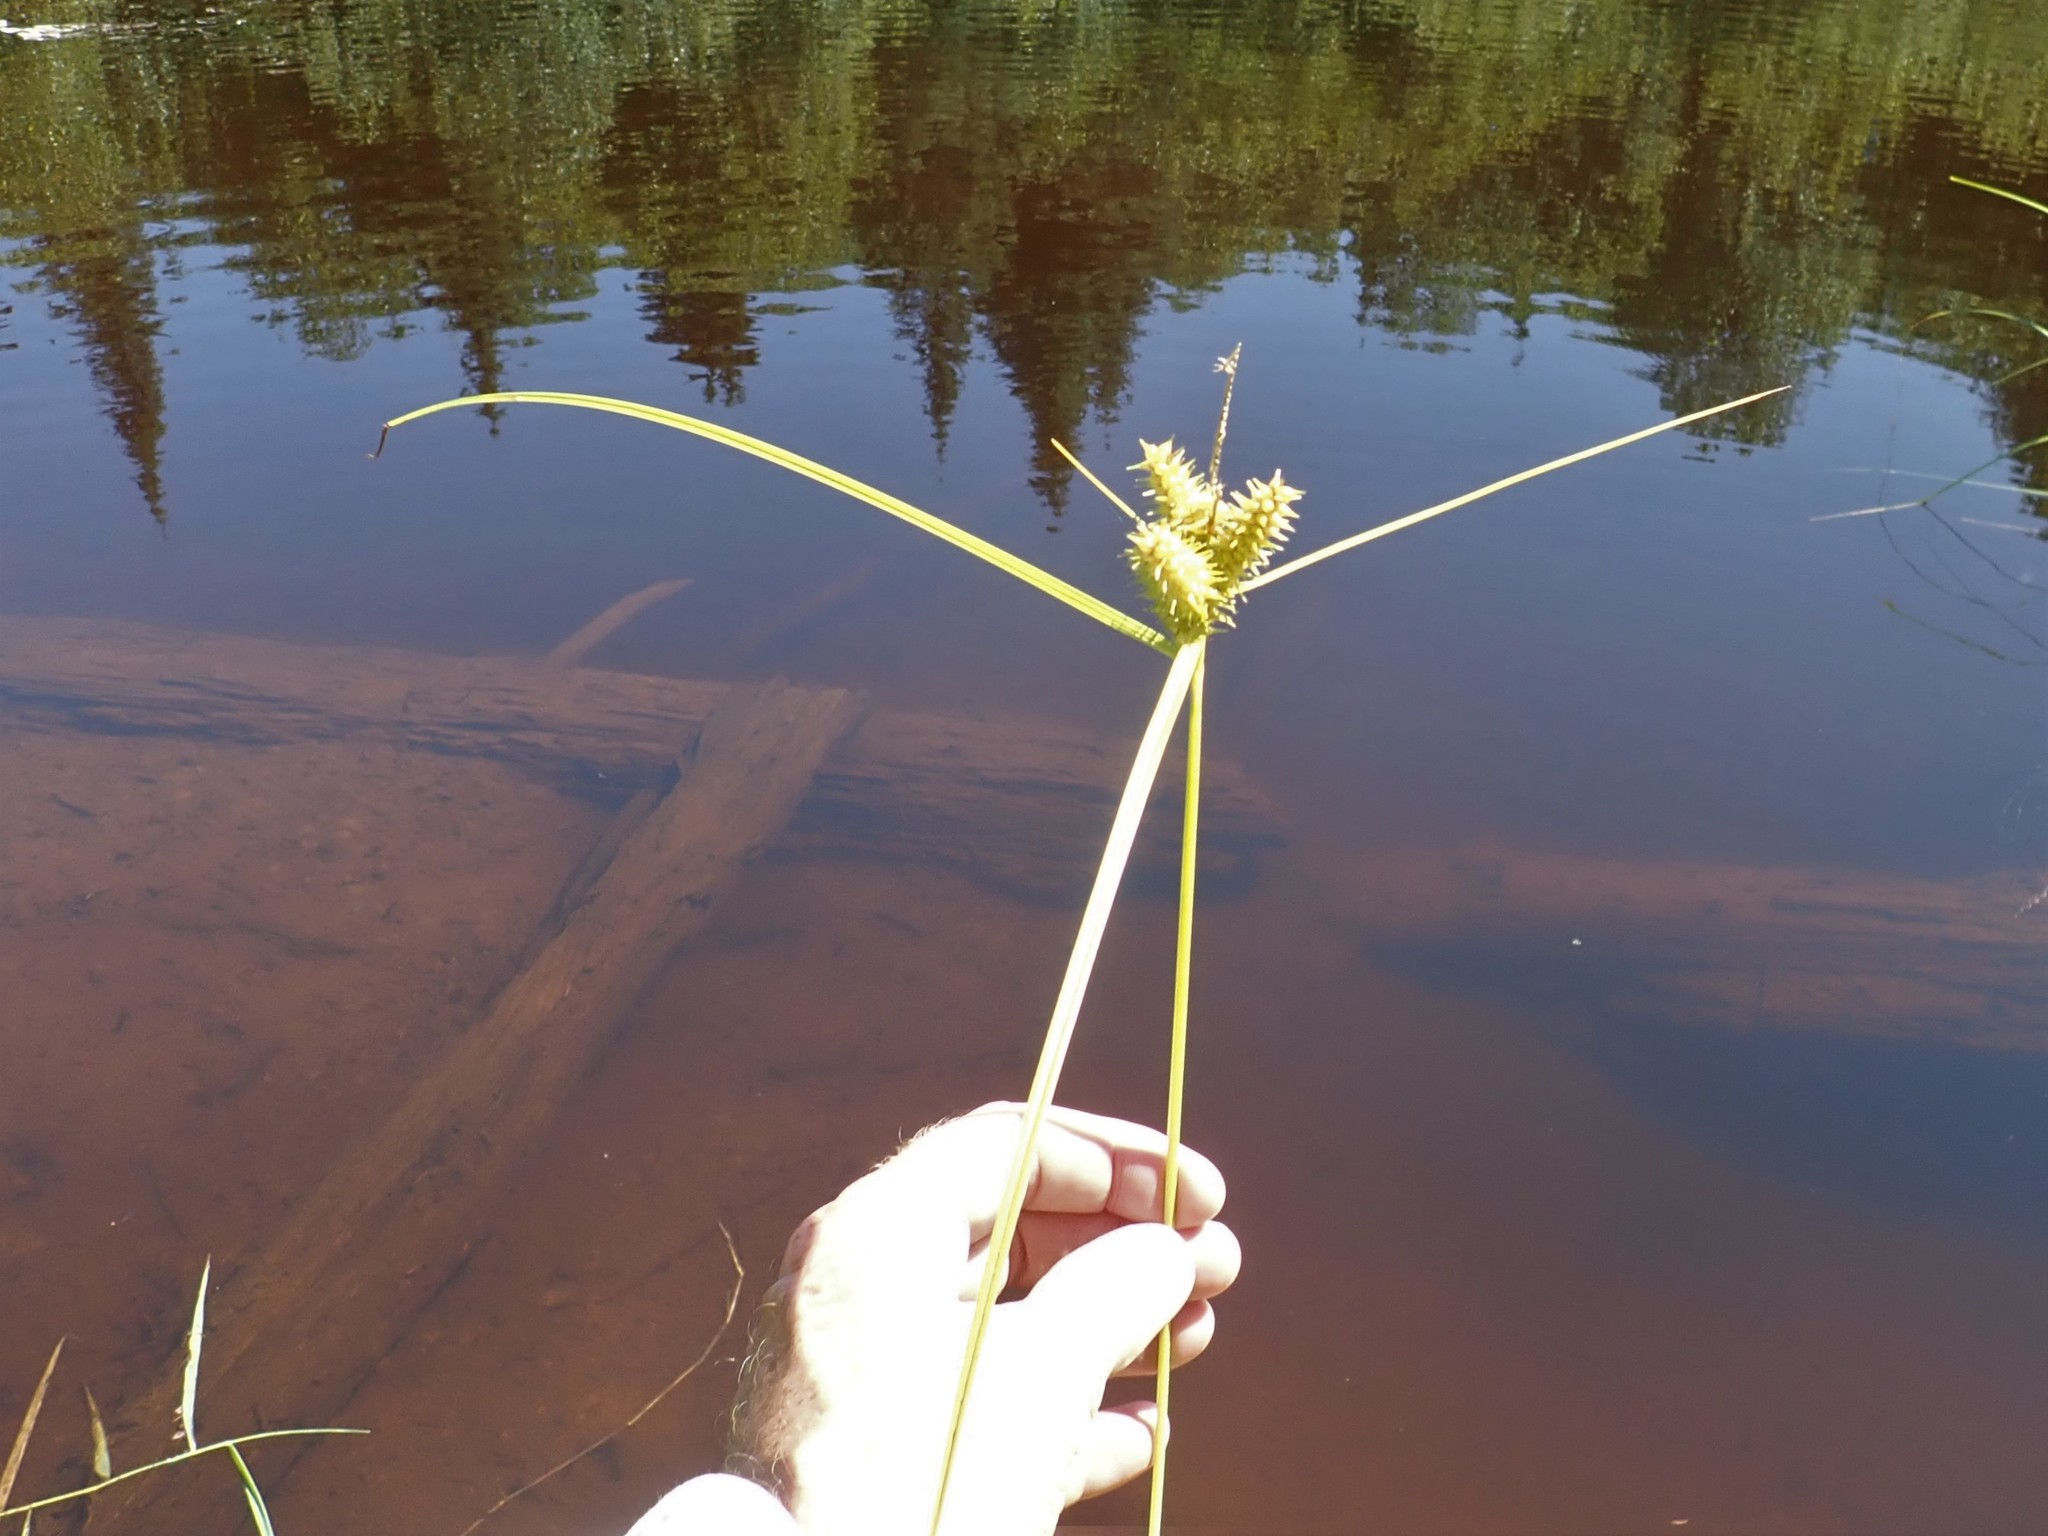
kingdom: Plantae
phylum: Tracheophyta
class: Liliopsida
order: Poales
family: Cyperaceae
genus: Carex
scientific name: Carex retrorsa
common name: Knot-sheath sedge
